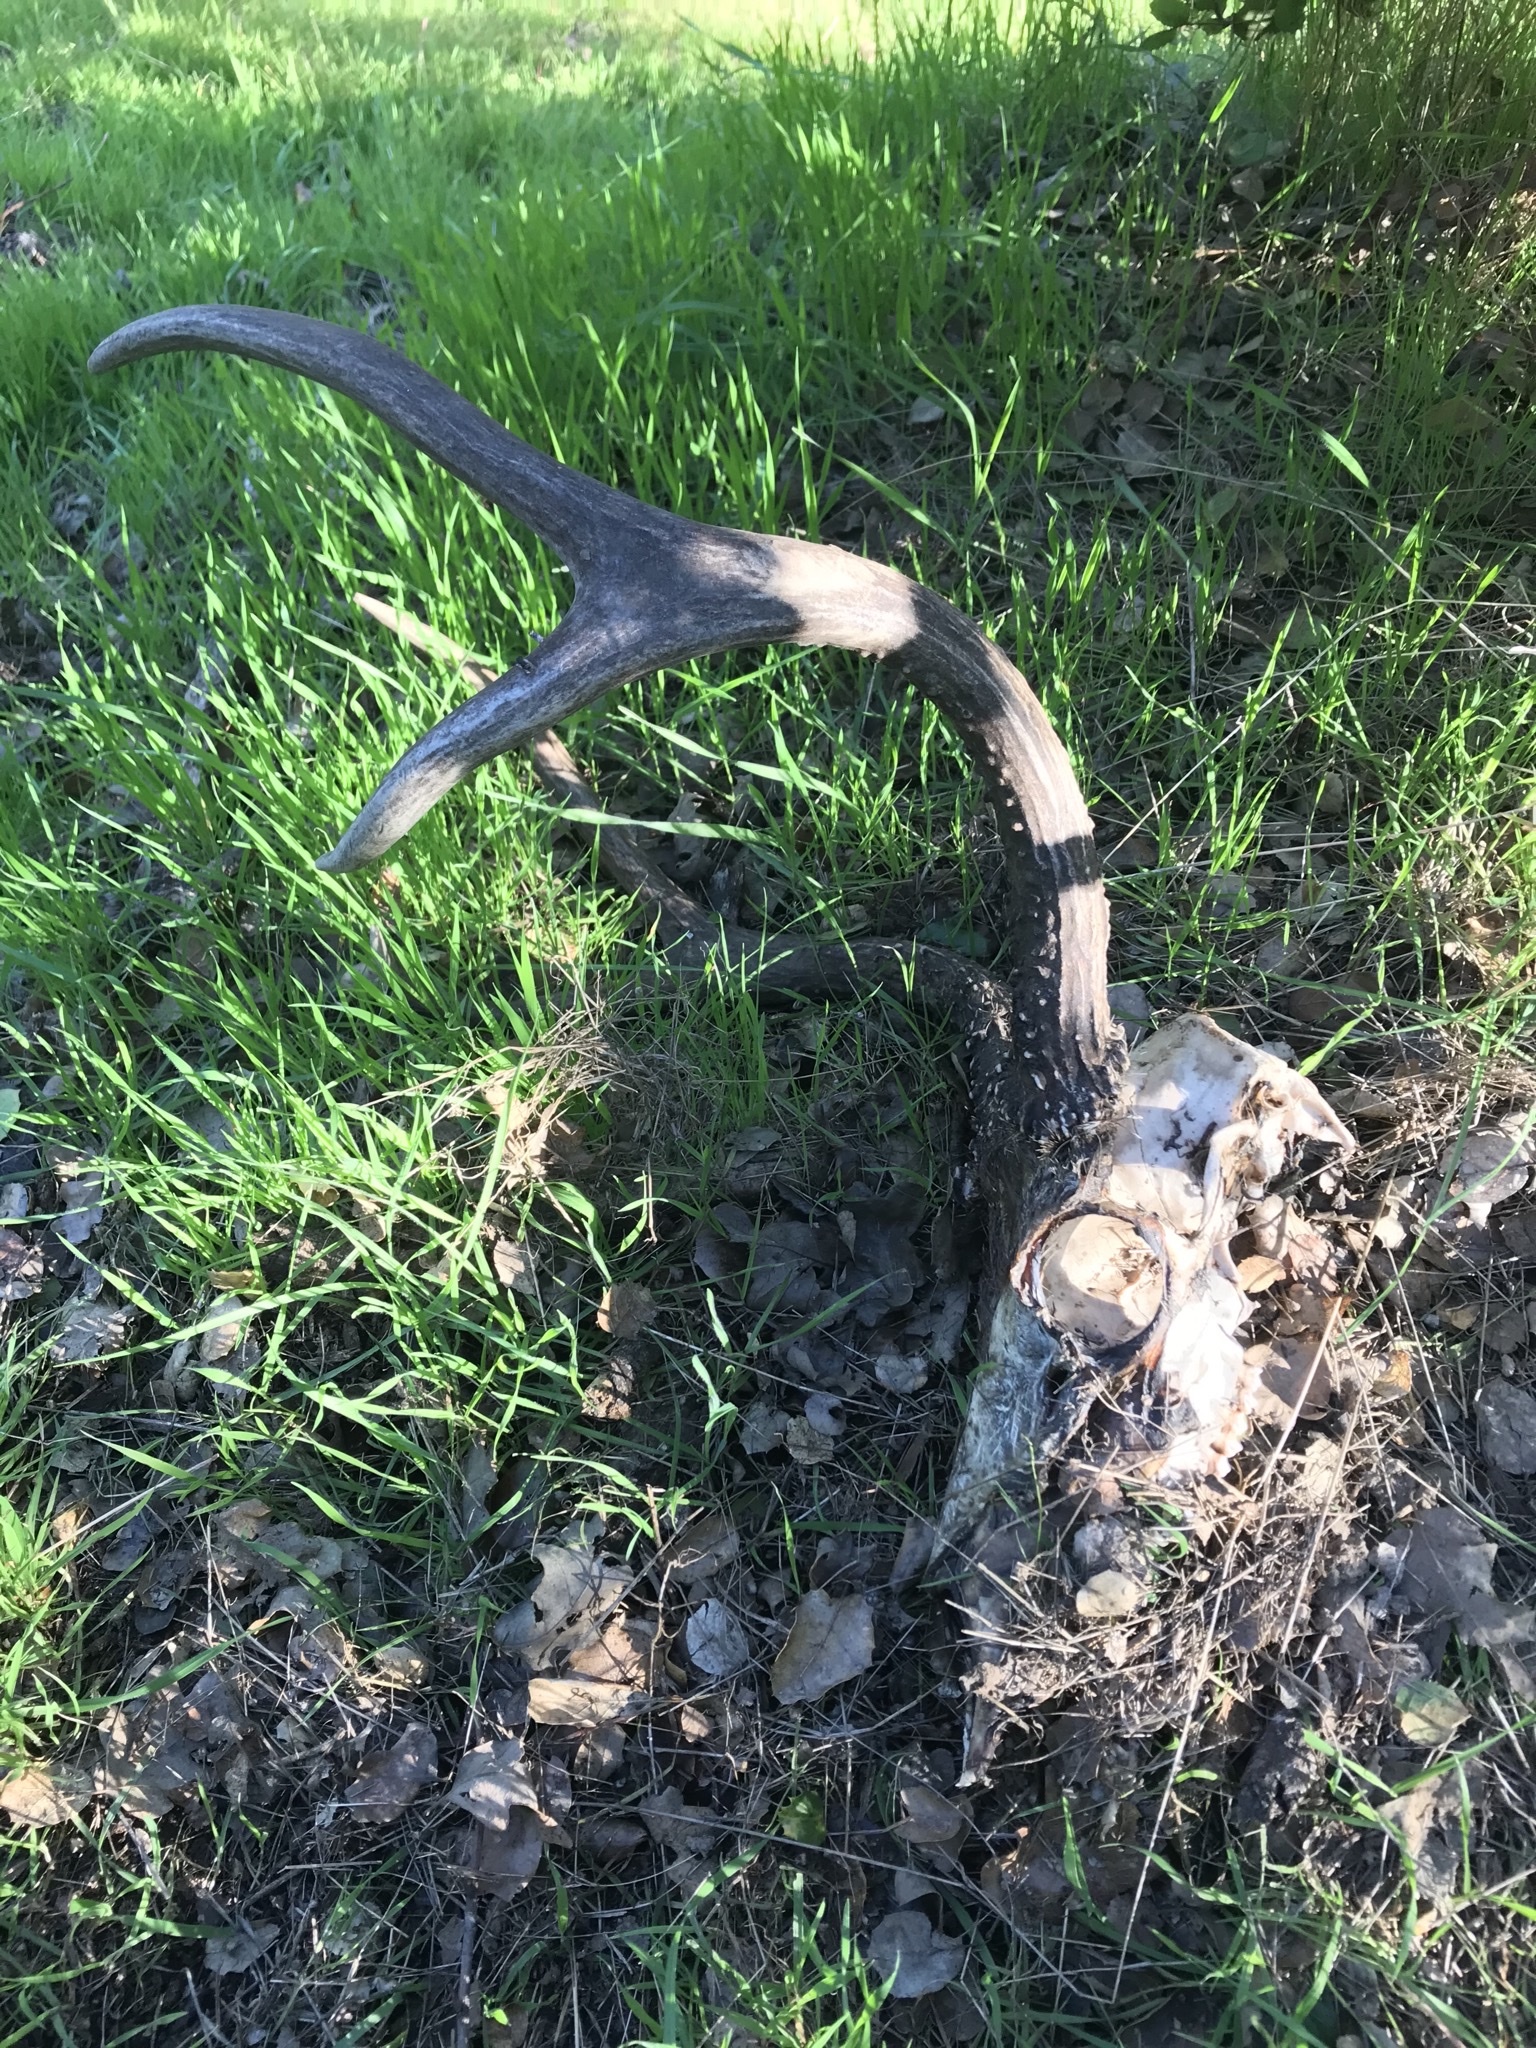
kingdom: Animalia
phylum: Chordata
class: Mammalia
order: Artiodactyla
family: Cervidae
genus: Odocoileus
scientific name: Odocoileus hemionus
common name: Mule deer
